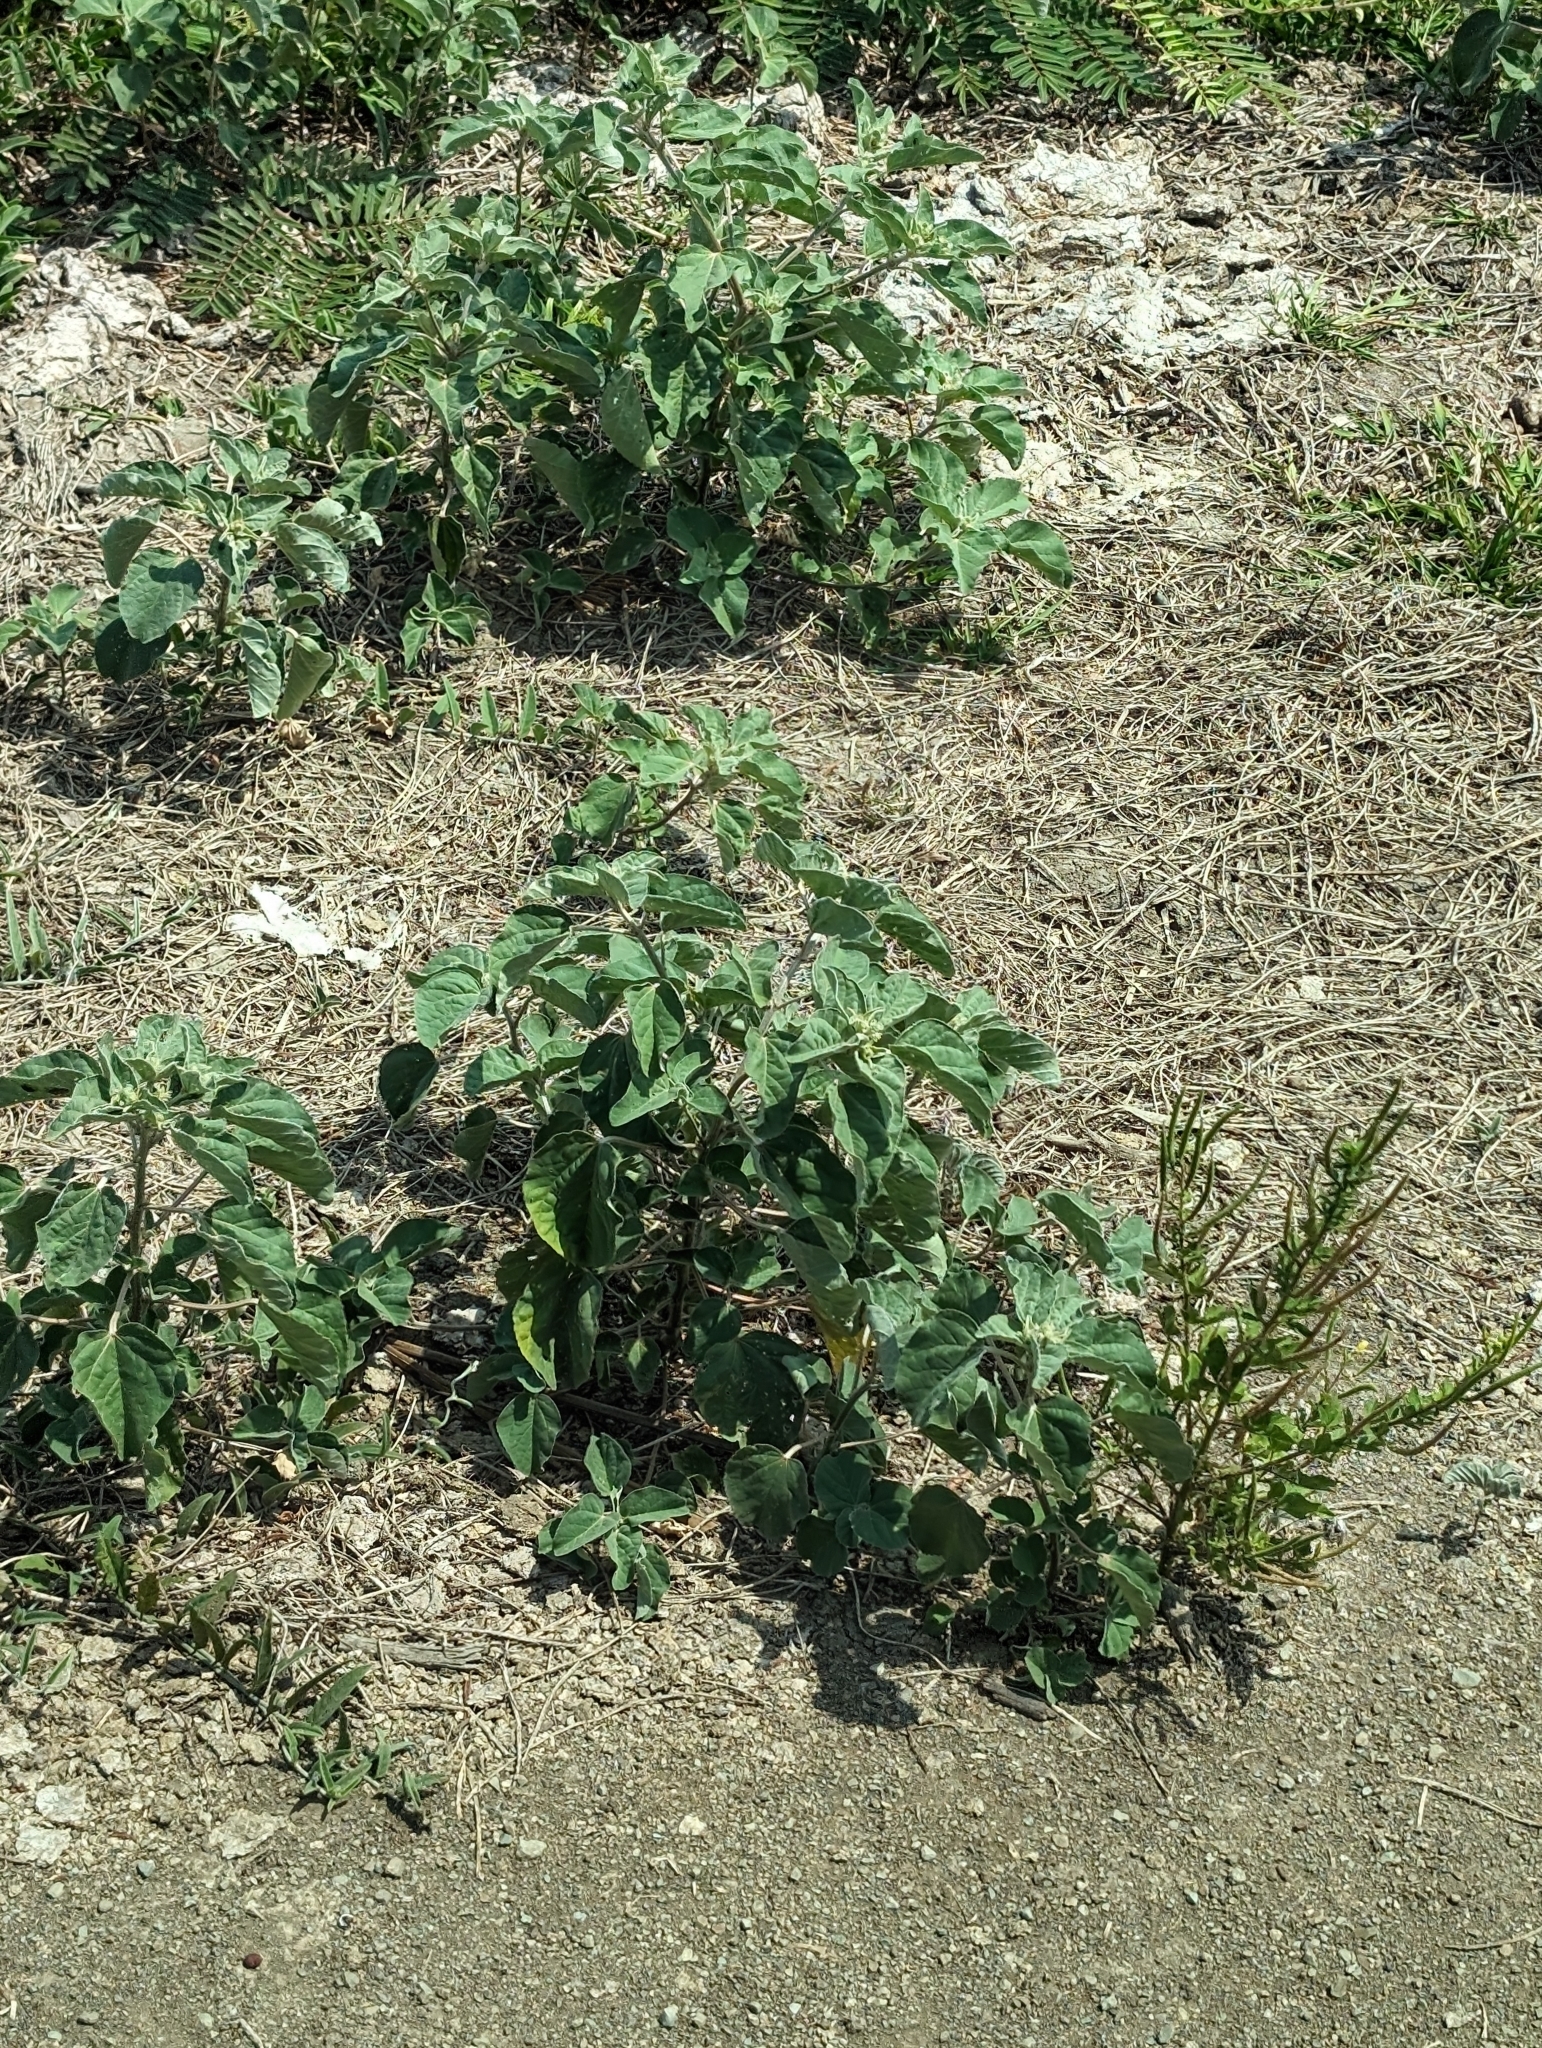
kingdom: Plantae
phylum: Tracheophyta
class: Magnoliopsida
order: Malpighiales
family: Euphorbiaceae
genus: Croton
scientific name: Croton argenteus
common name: Silver july croton
